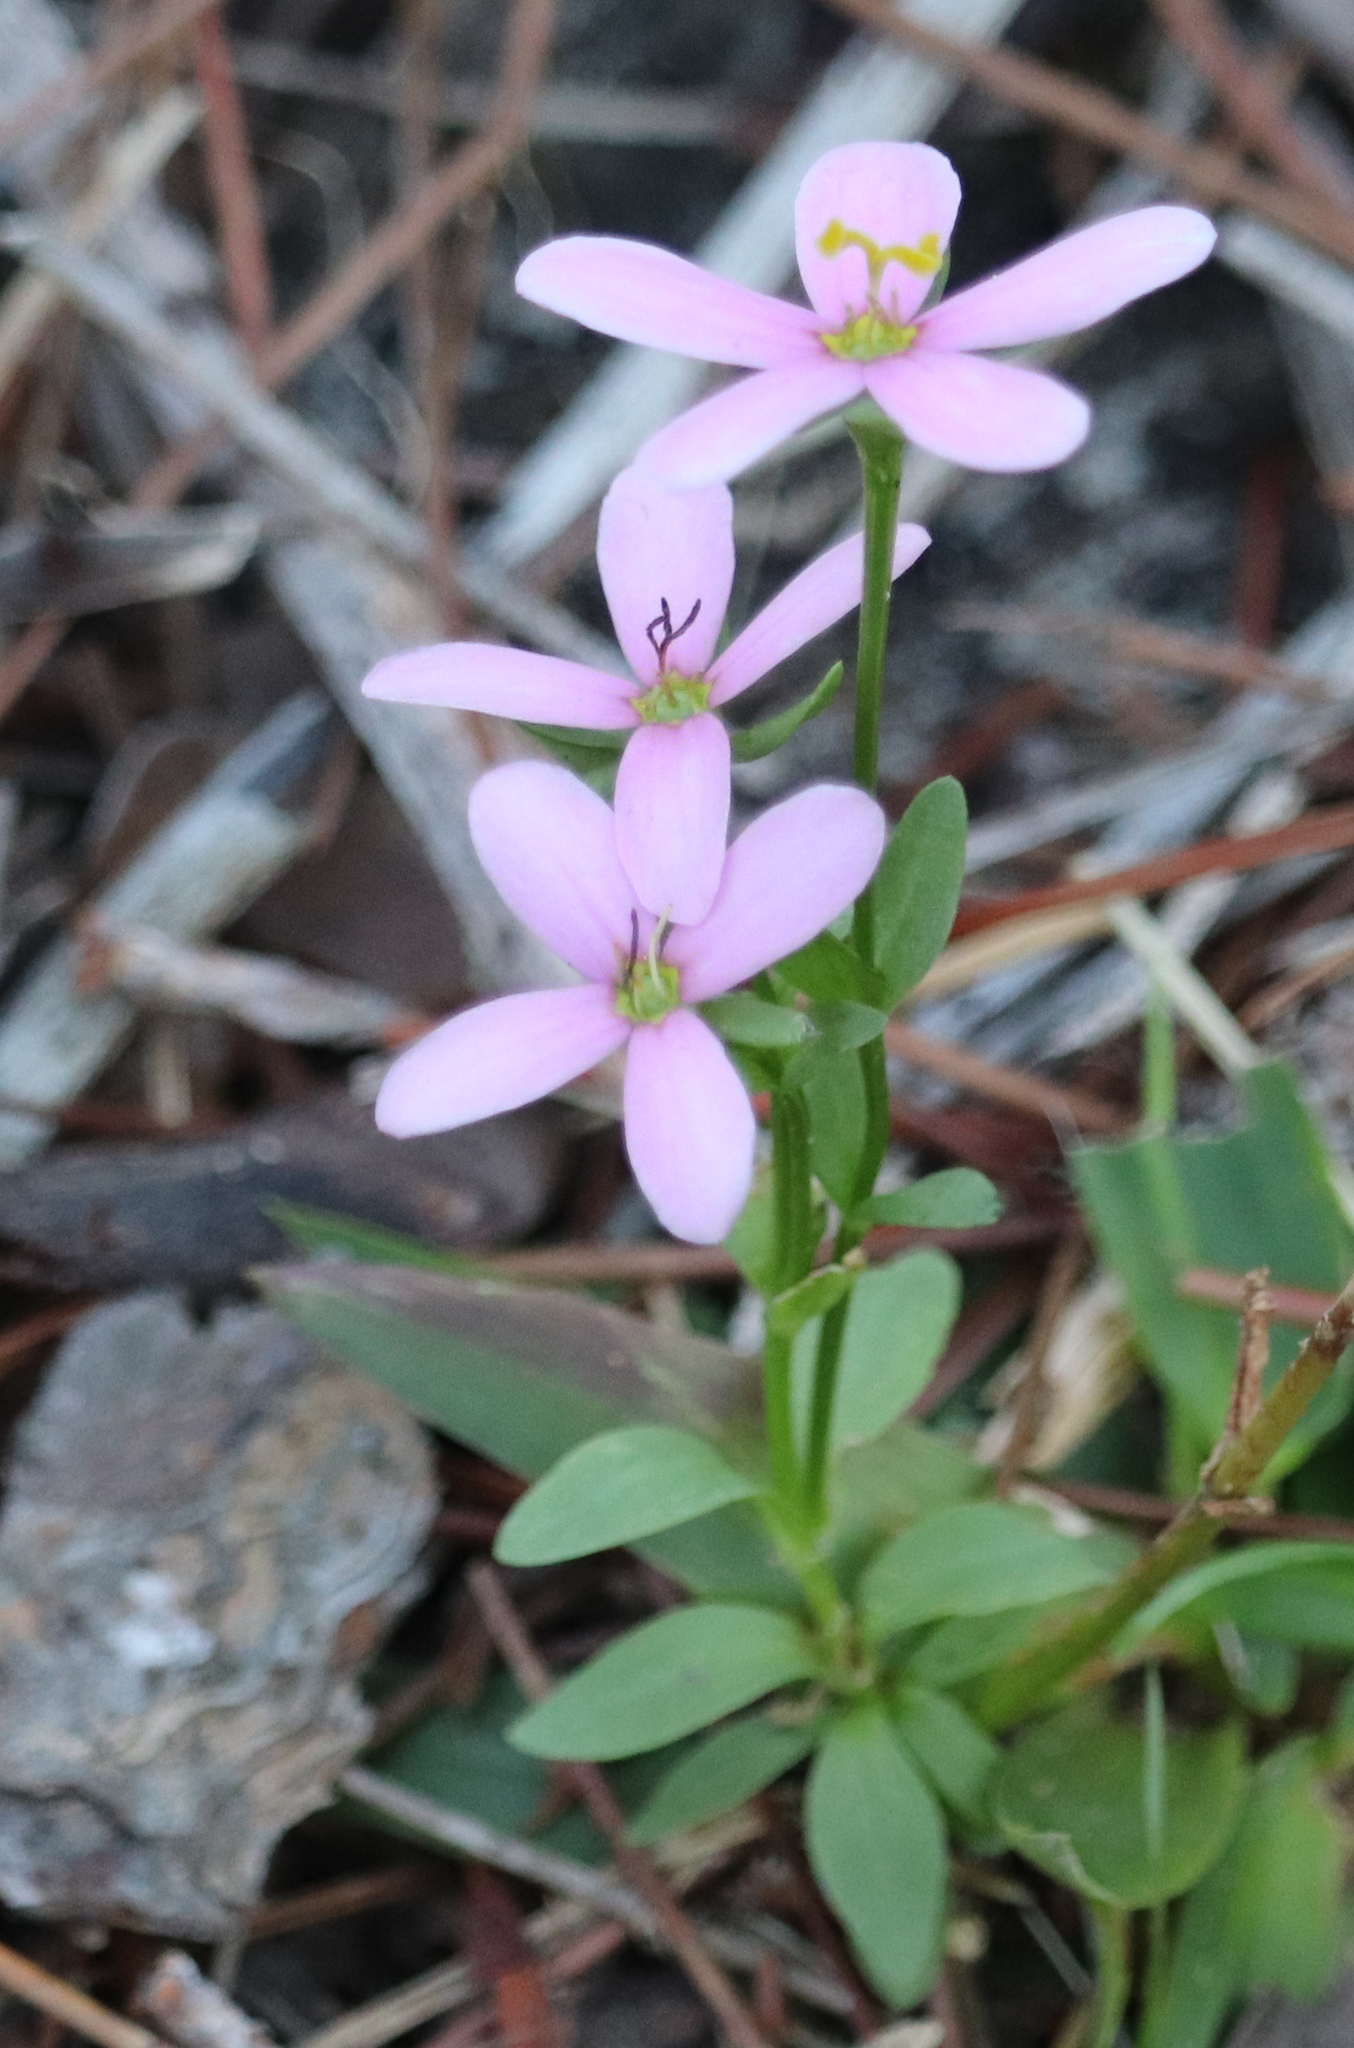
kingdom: Plantae
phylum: Tracheophyta
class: Magnoliopsida
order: Gentianales
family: Gentianaceae
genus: Sabatia
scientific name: Sabatia brachiata
